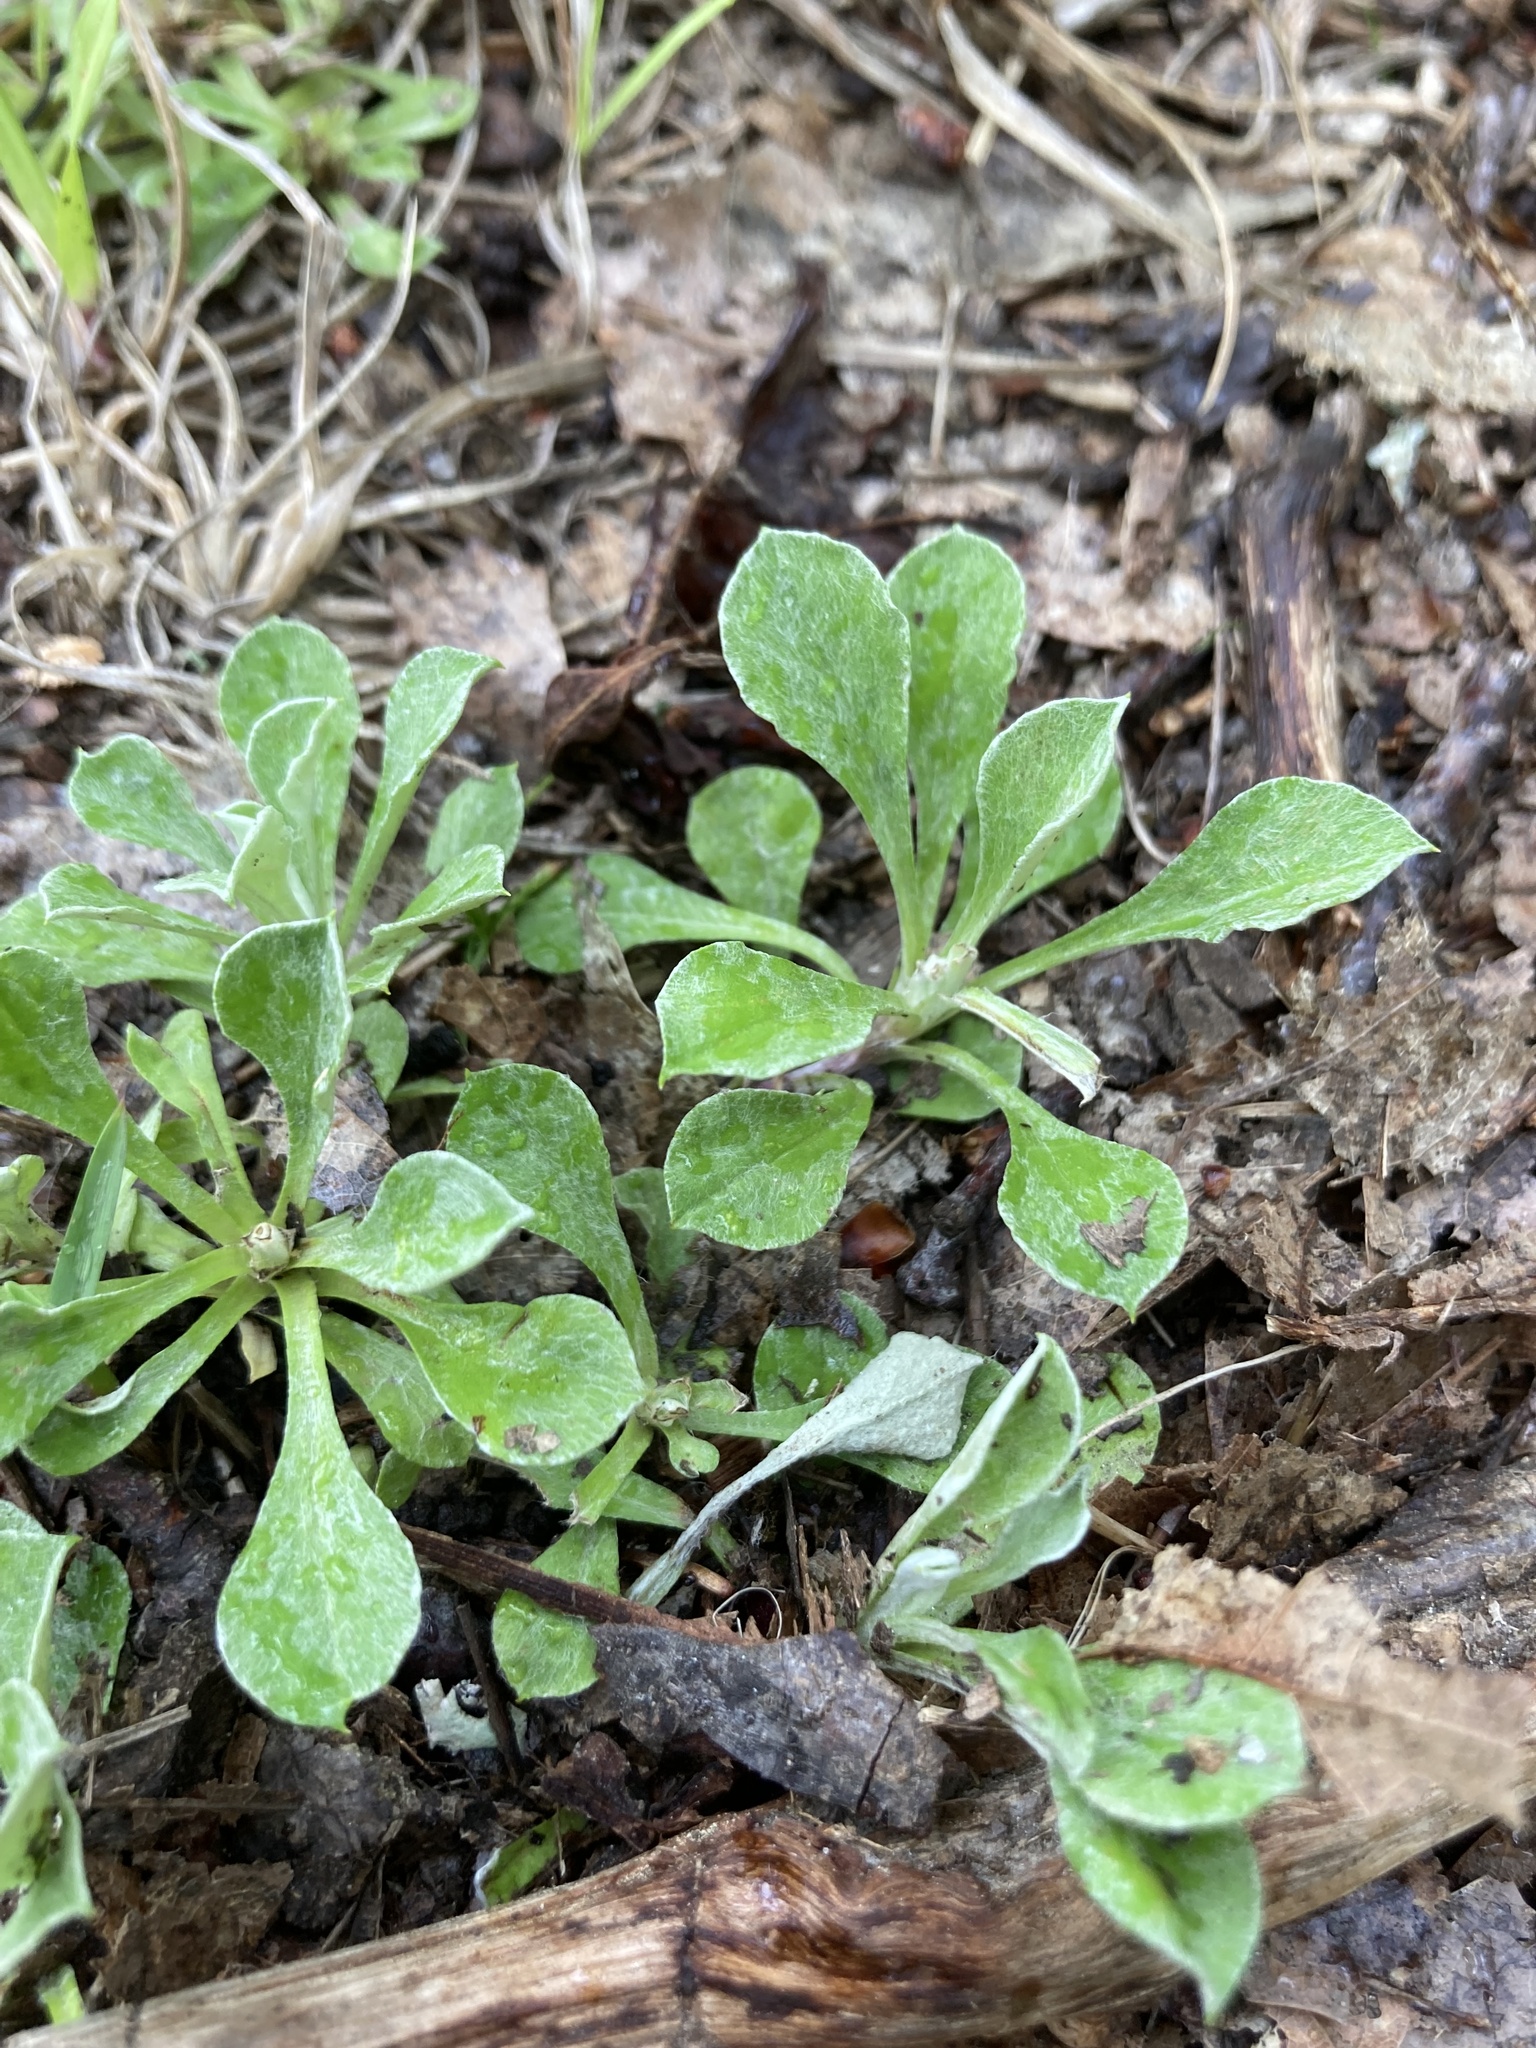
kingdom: Plantae
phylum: Tracheophyta
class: Magnoliopsida
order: Asterales
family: Asteraceae
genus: Antennaria
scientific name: Antennaria howellii
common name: Howell's pussytoes
